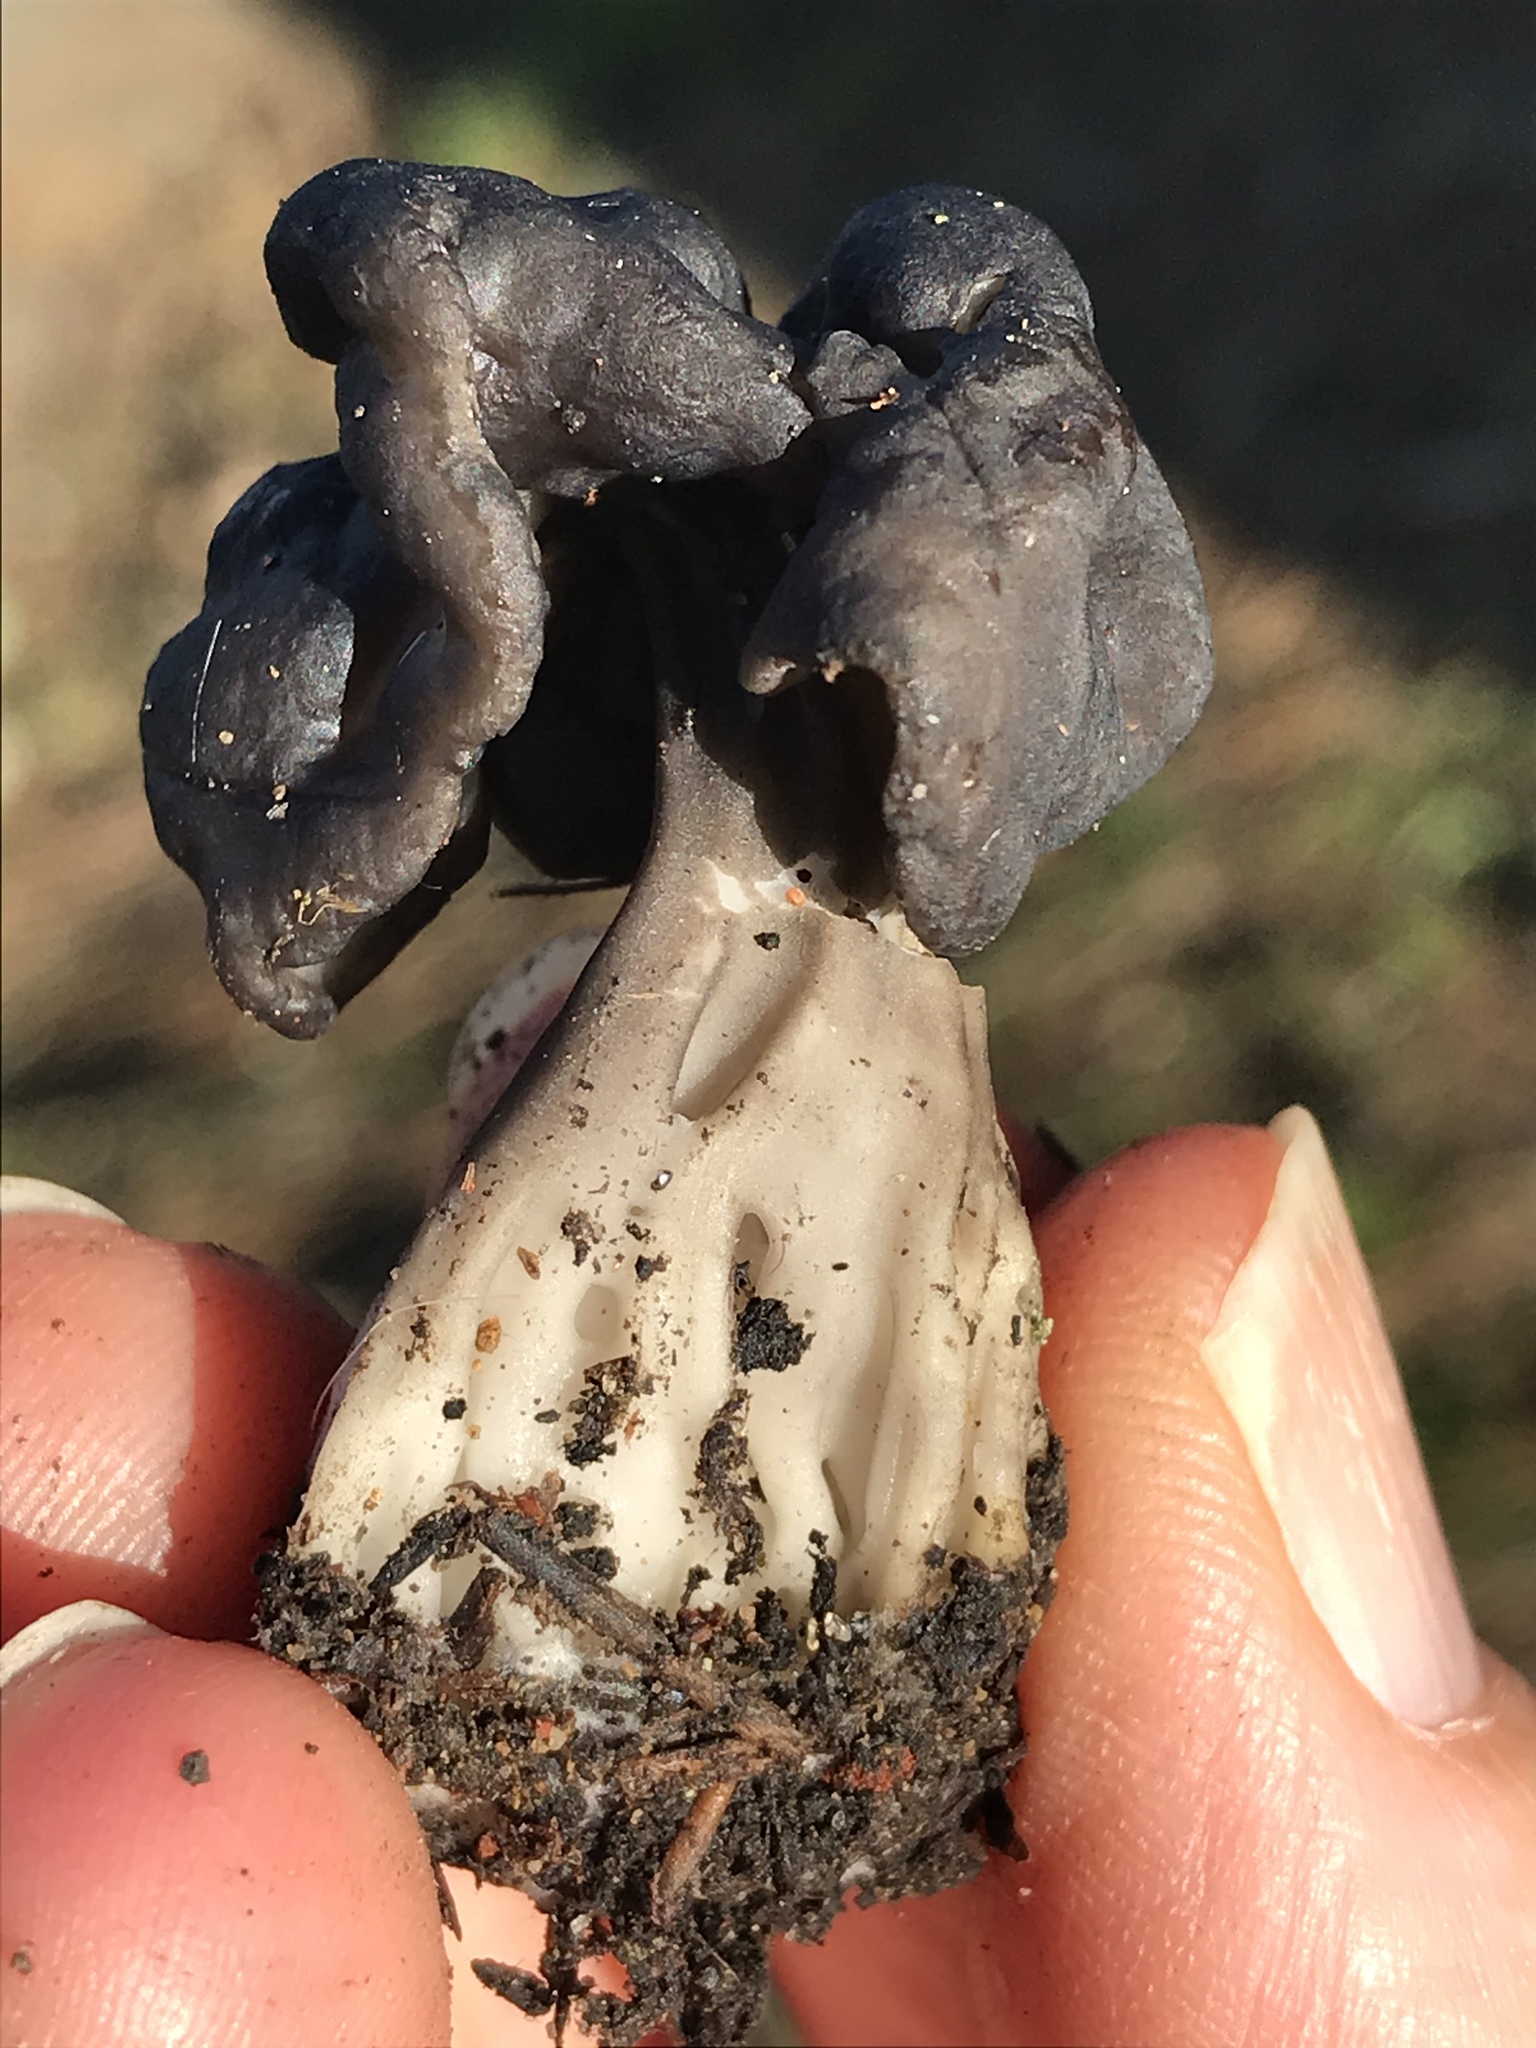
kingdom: Fungi
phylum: Ascomycota
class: Pezizomycetes
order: Pezizales
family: Helvellaceae
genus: Helvella
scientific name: Helvella vespertina
